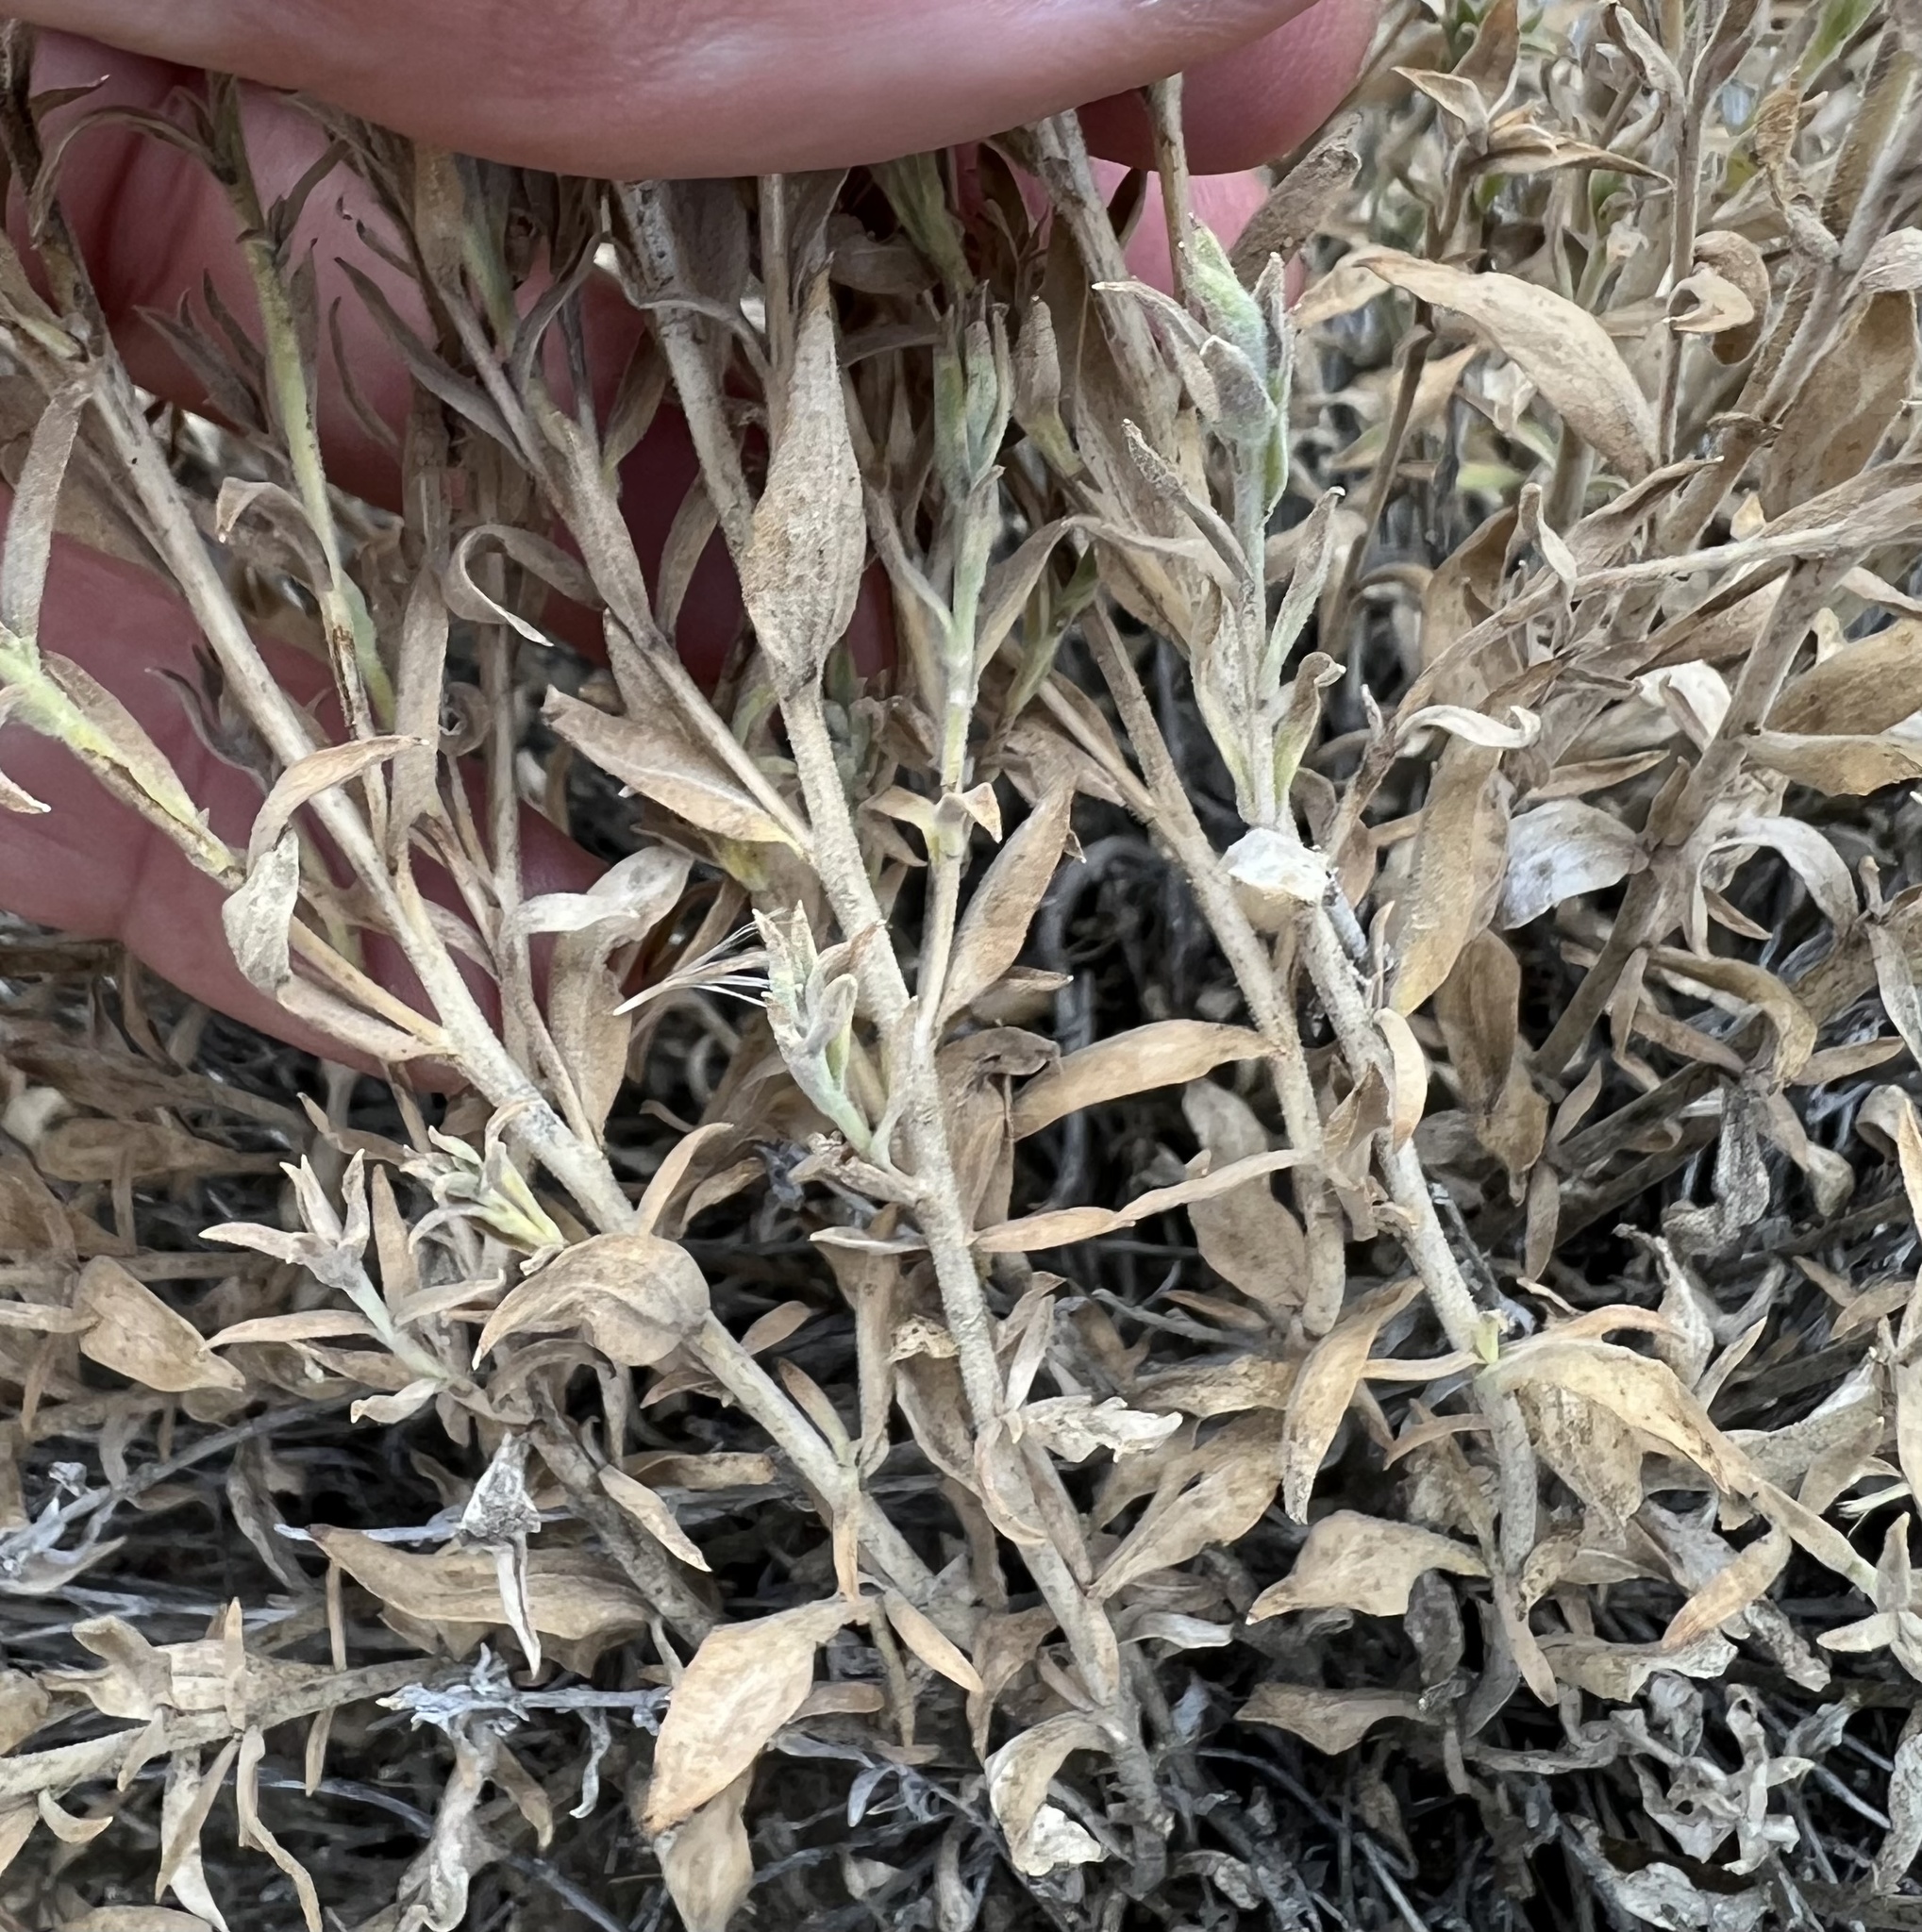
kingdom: Plantae
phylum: Tracheophyta
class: Magnoliopsida
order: Asterales
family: Asteraceae
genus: Brickellia
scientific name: Brickellia oblongifolia
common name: Mojave brickellbush
